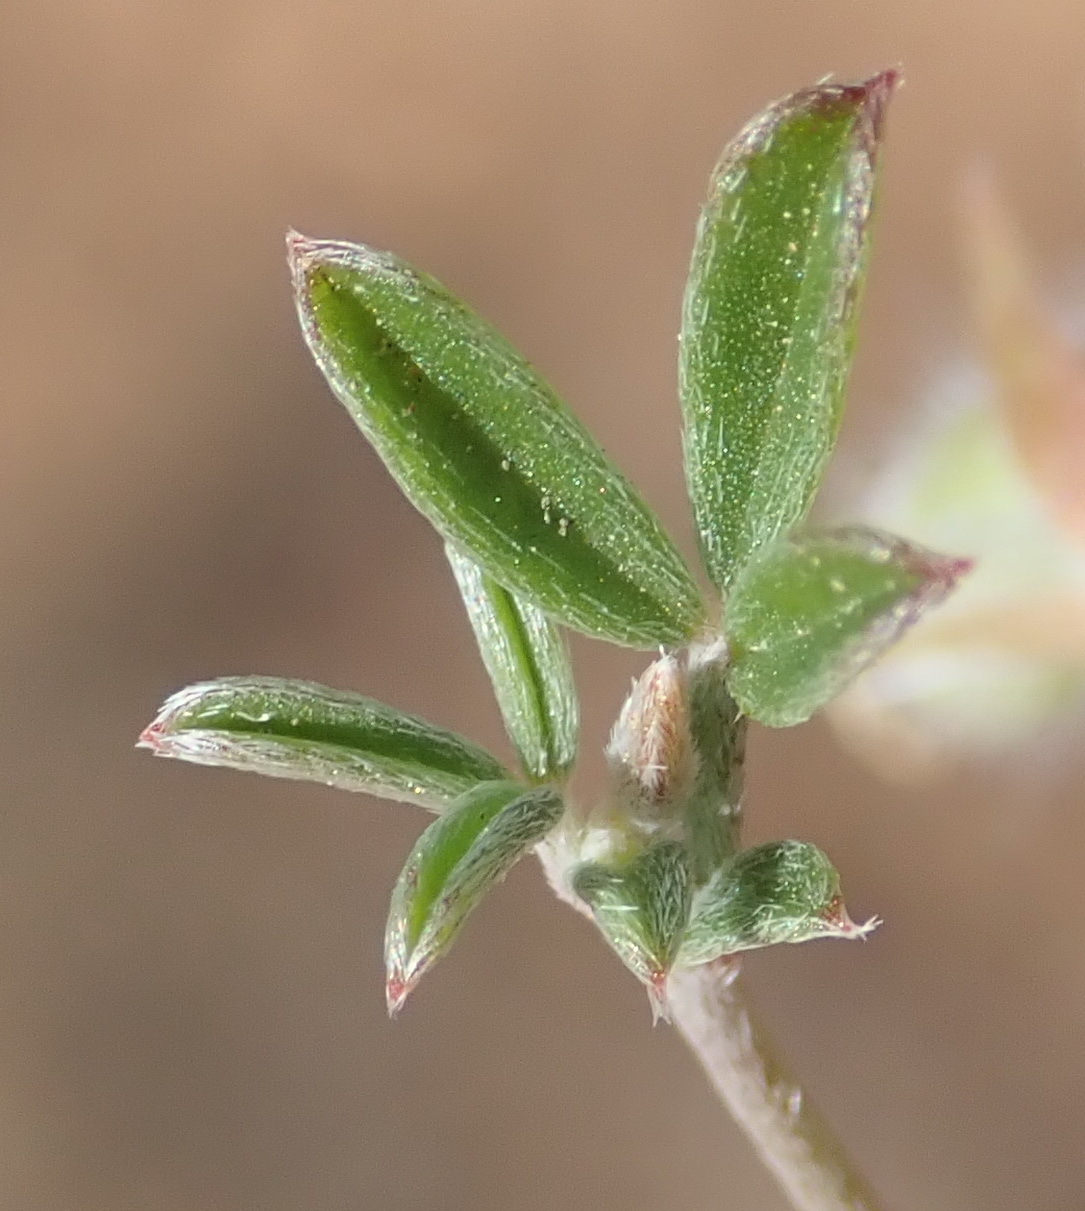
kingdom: Plantae
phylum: Tracheophyta
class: Magnoliopsida
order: Fabales
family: Fabaceae
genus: Lotononis
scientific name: Lotononis pungens
